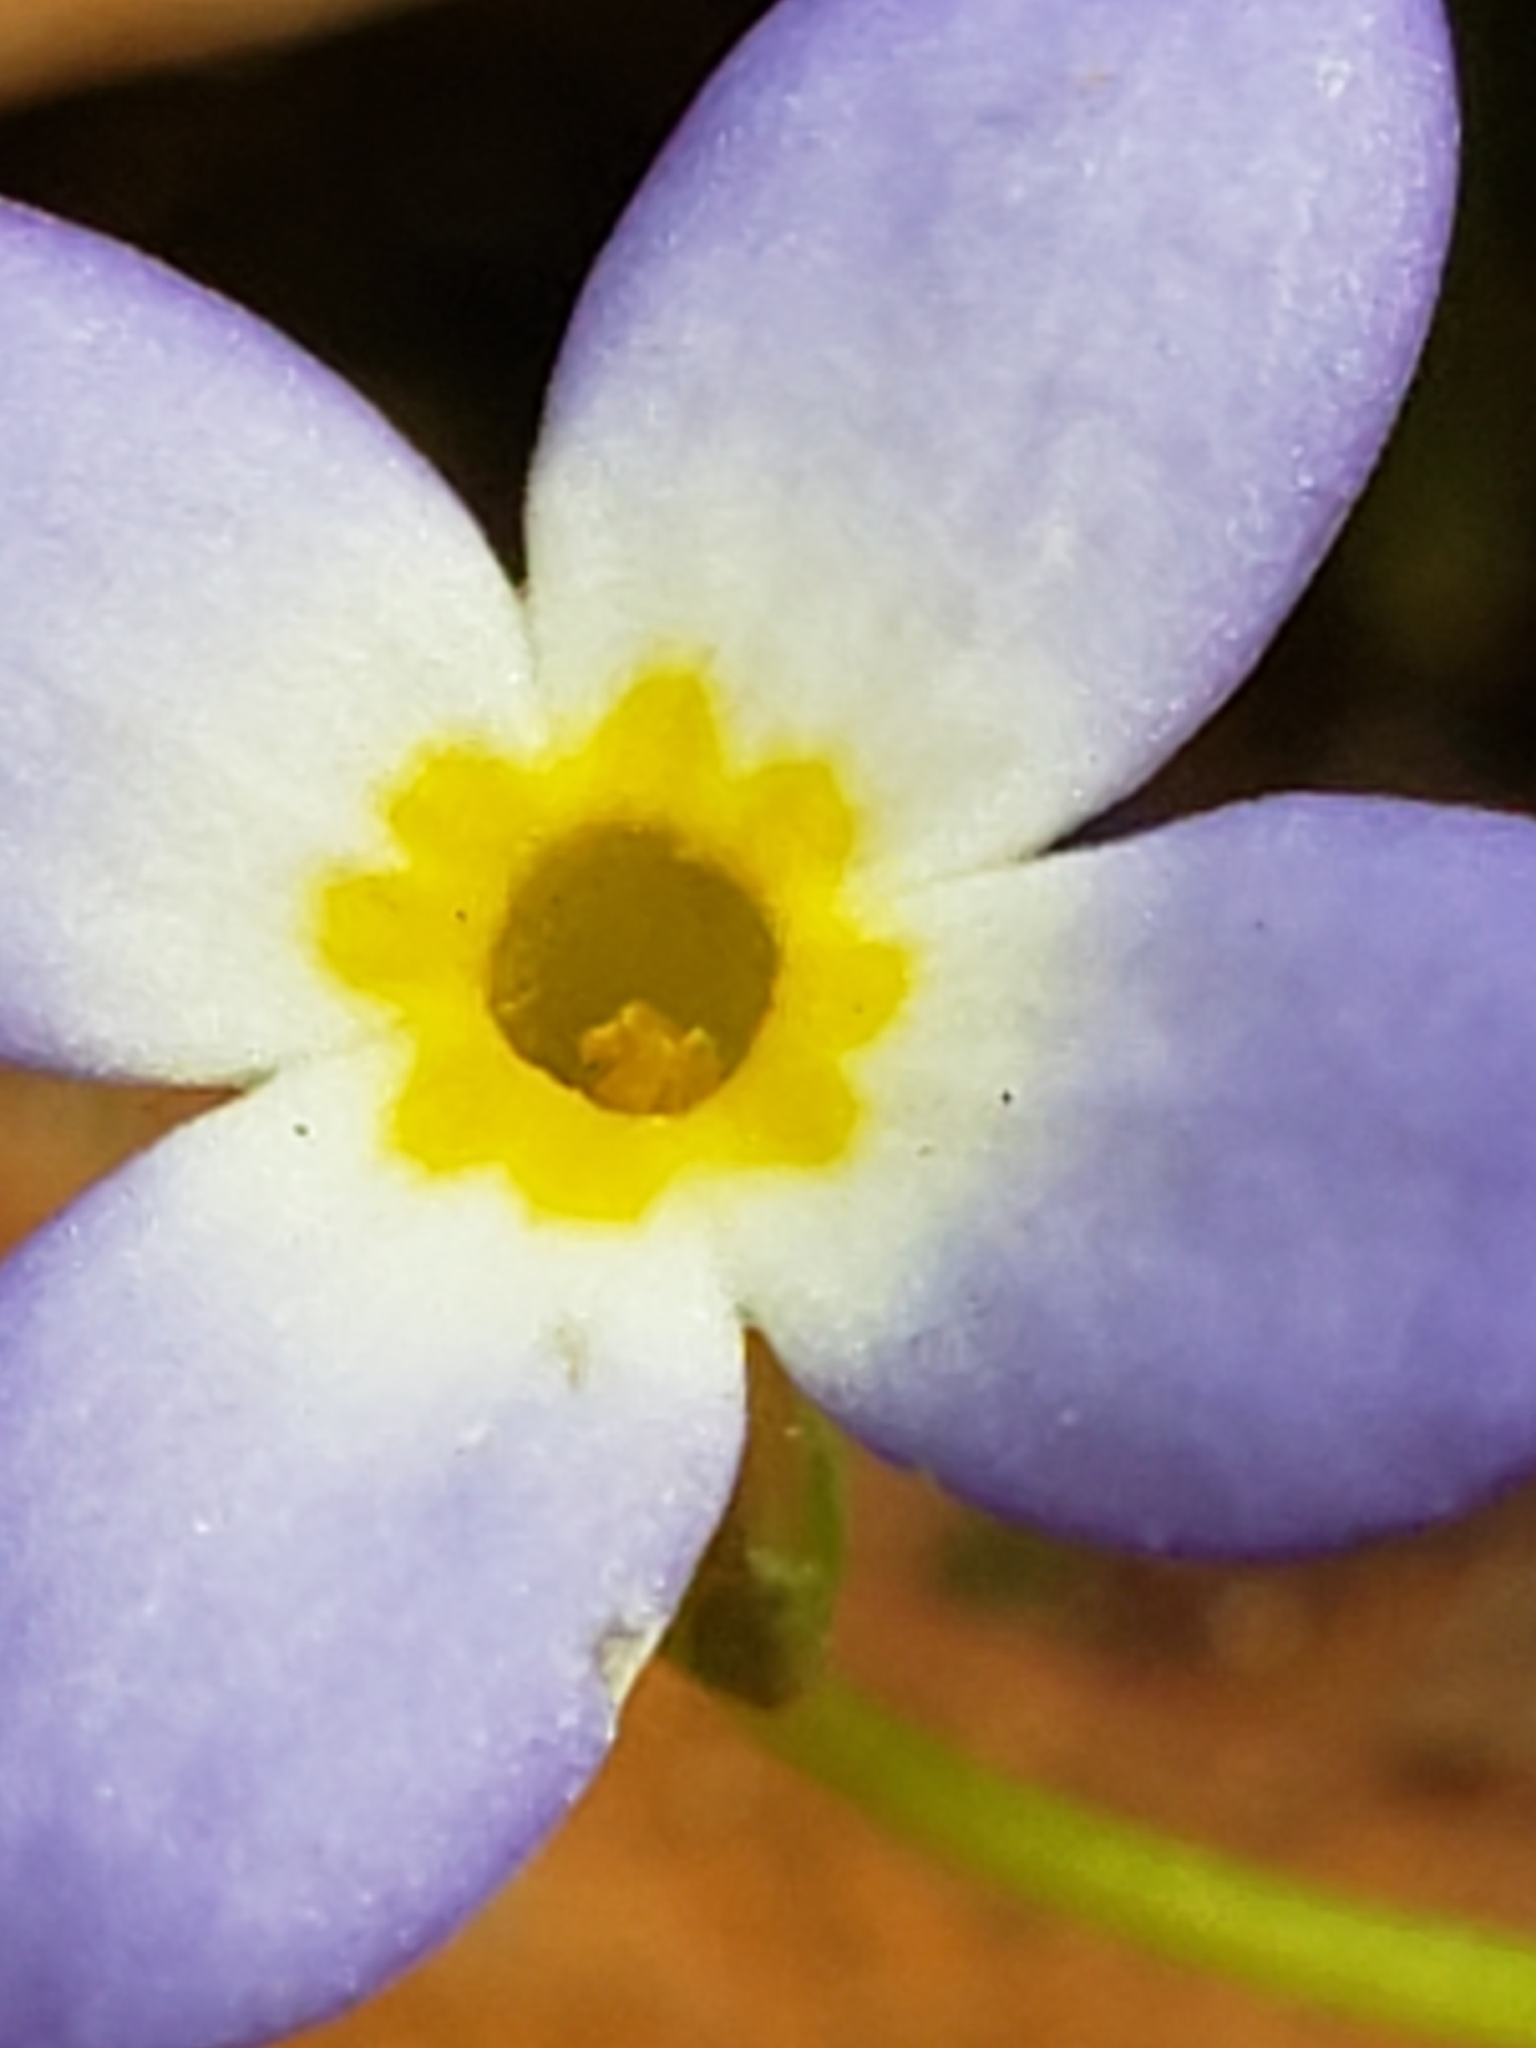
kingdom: Plantae
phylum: Tracheophyta
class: Magnoliopsida
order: Gentianales
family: Rubiaceae
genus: Houstonia
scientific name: Houstonia caerulea
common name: Bluets
